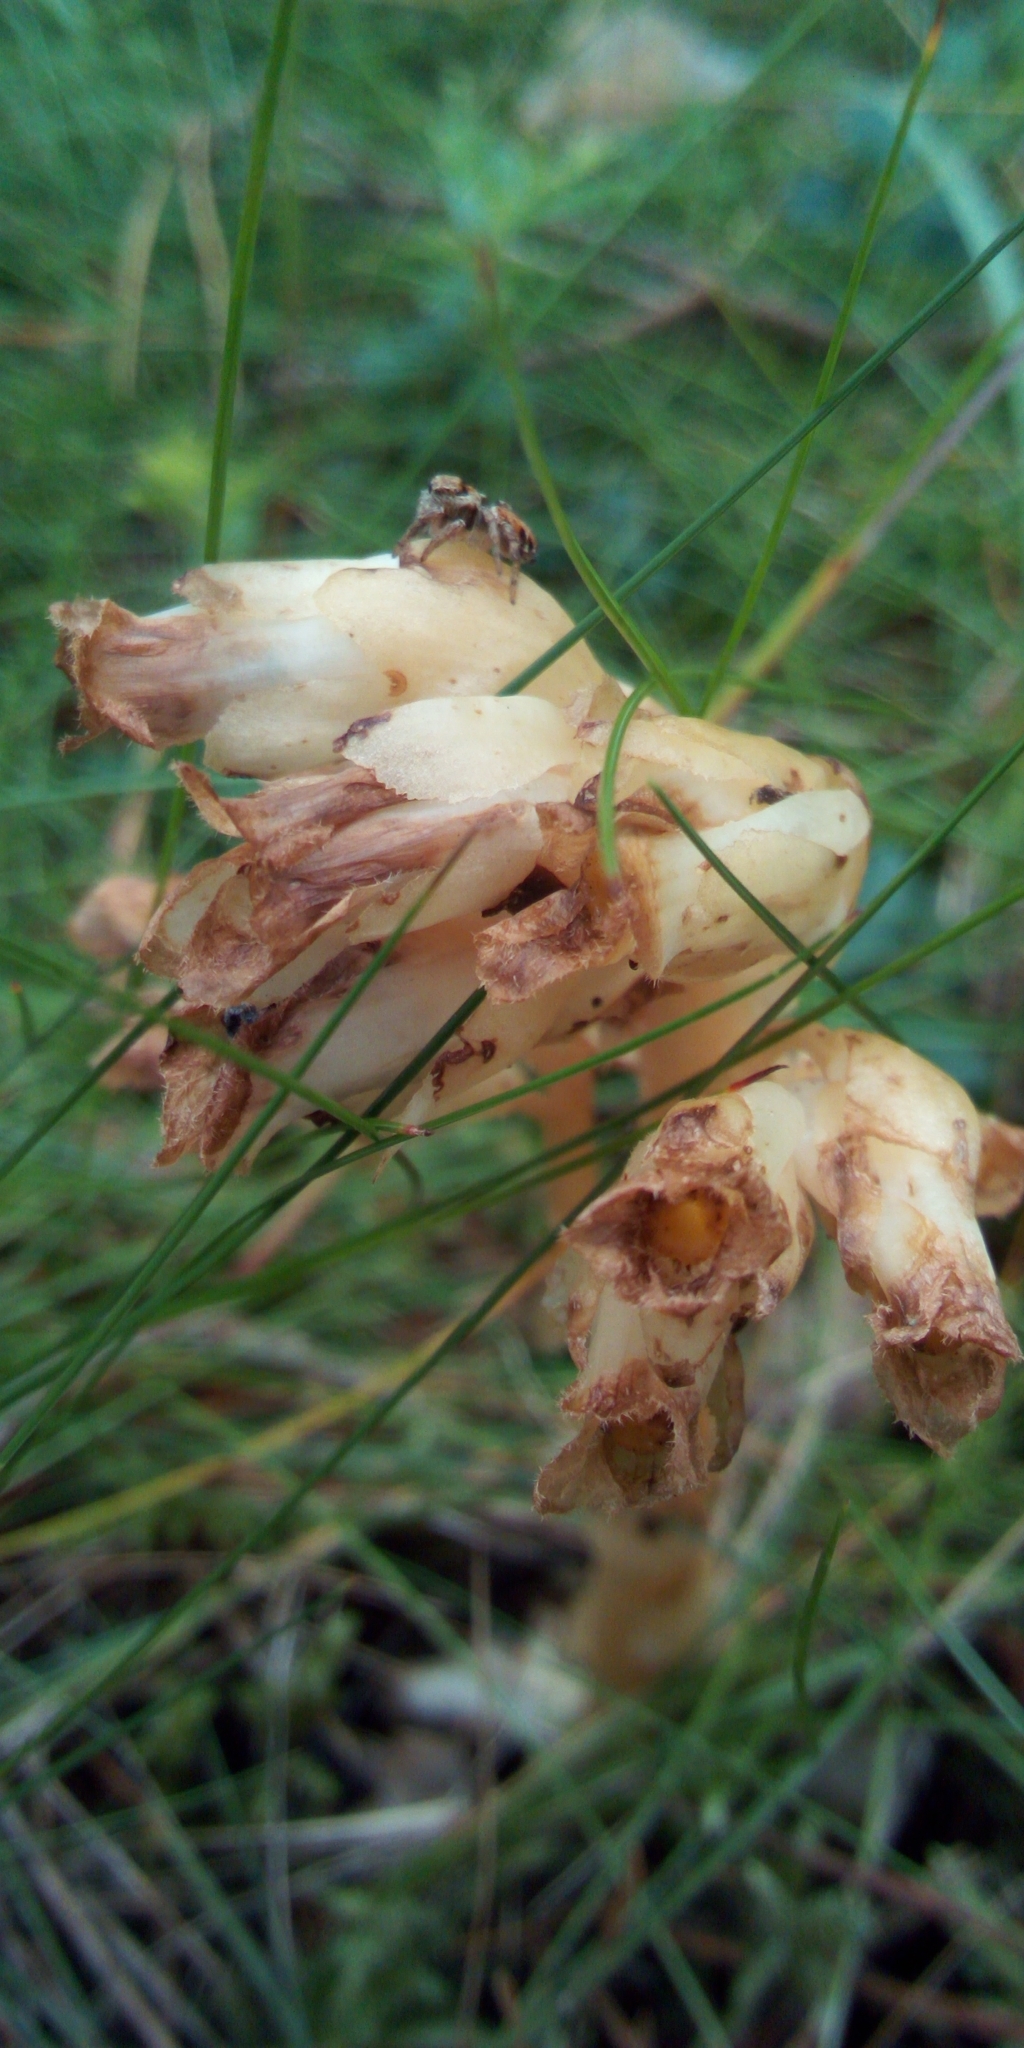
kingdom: Plantae
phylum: Tracheophyta
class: Magnoliopsida
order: Ericales
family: Ericaceae
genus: Hypopitys
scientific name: Hypopitys monotropa
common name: Yellow bird's-nest
